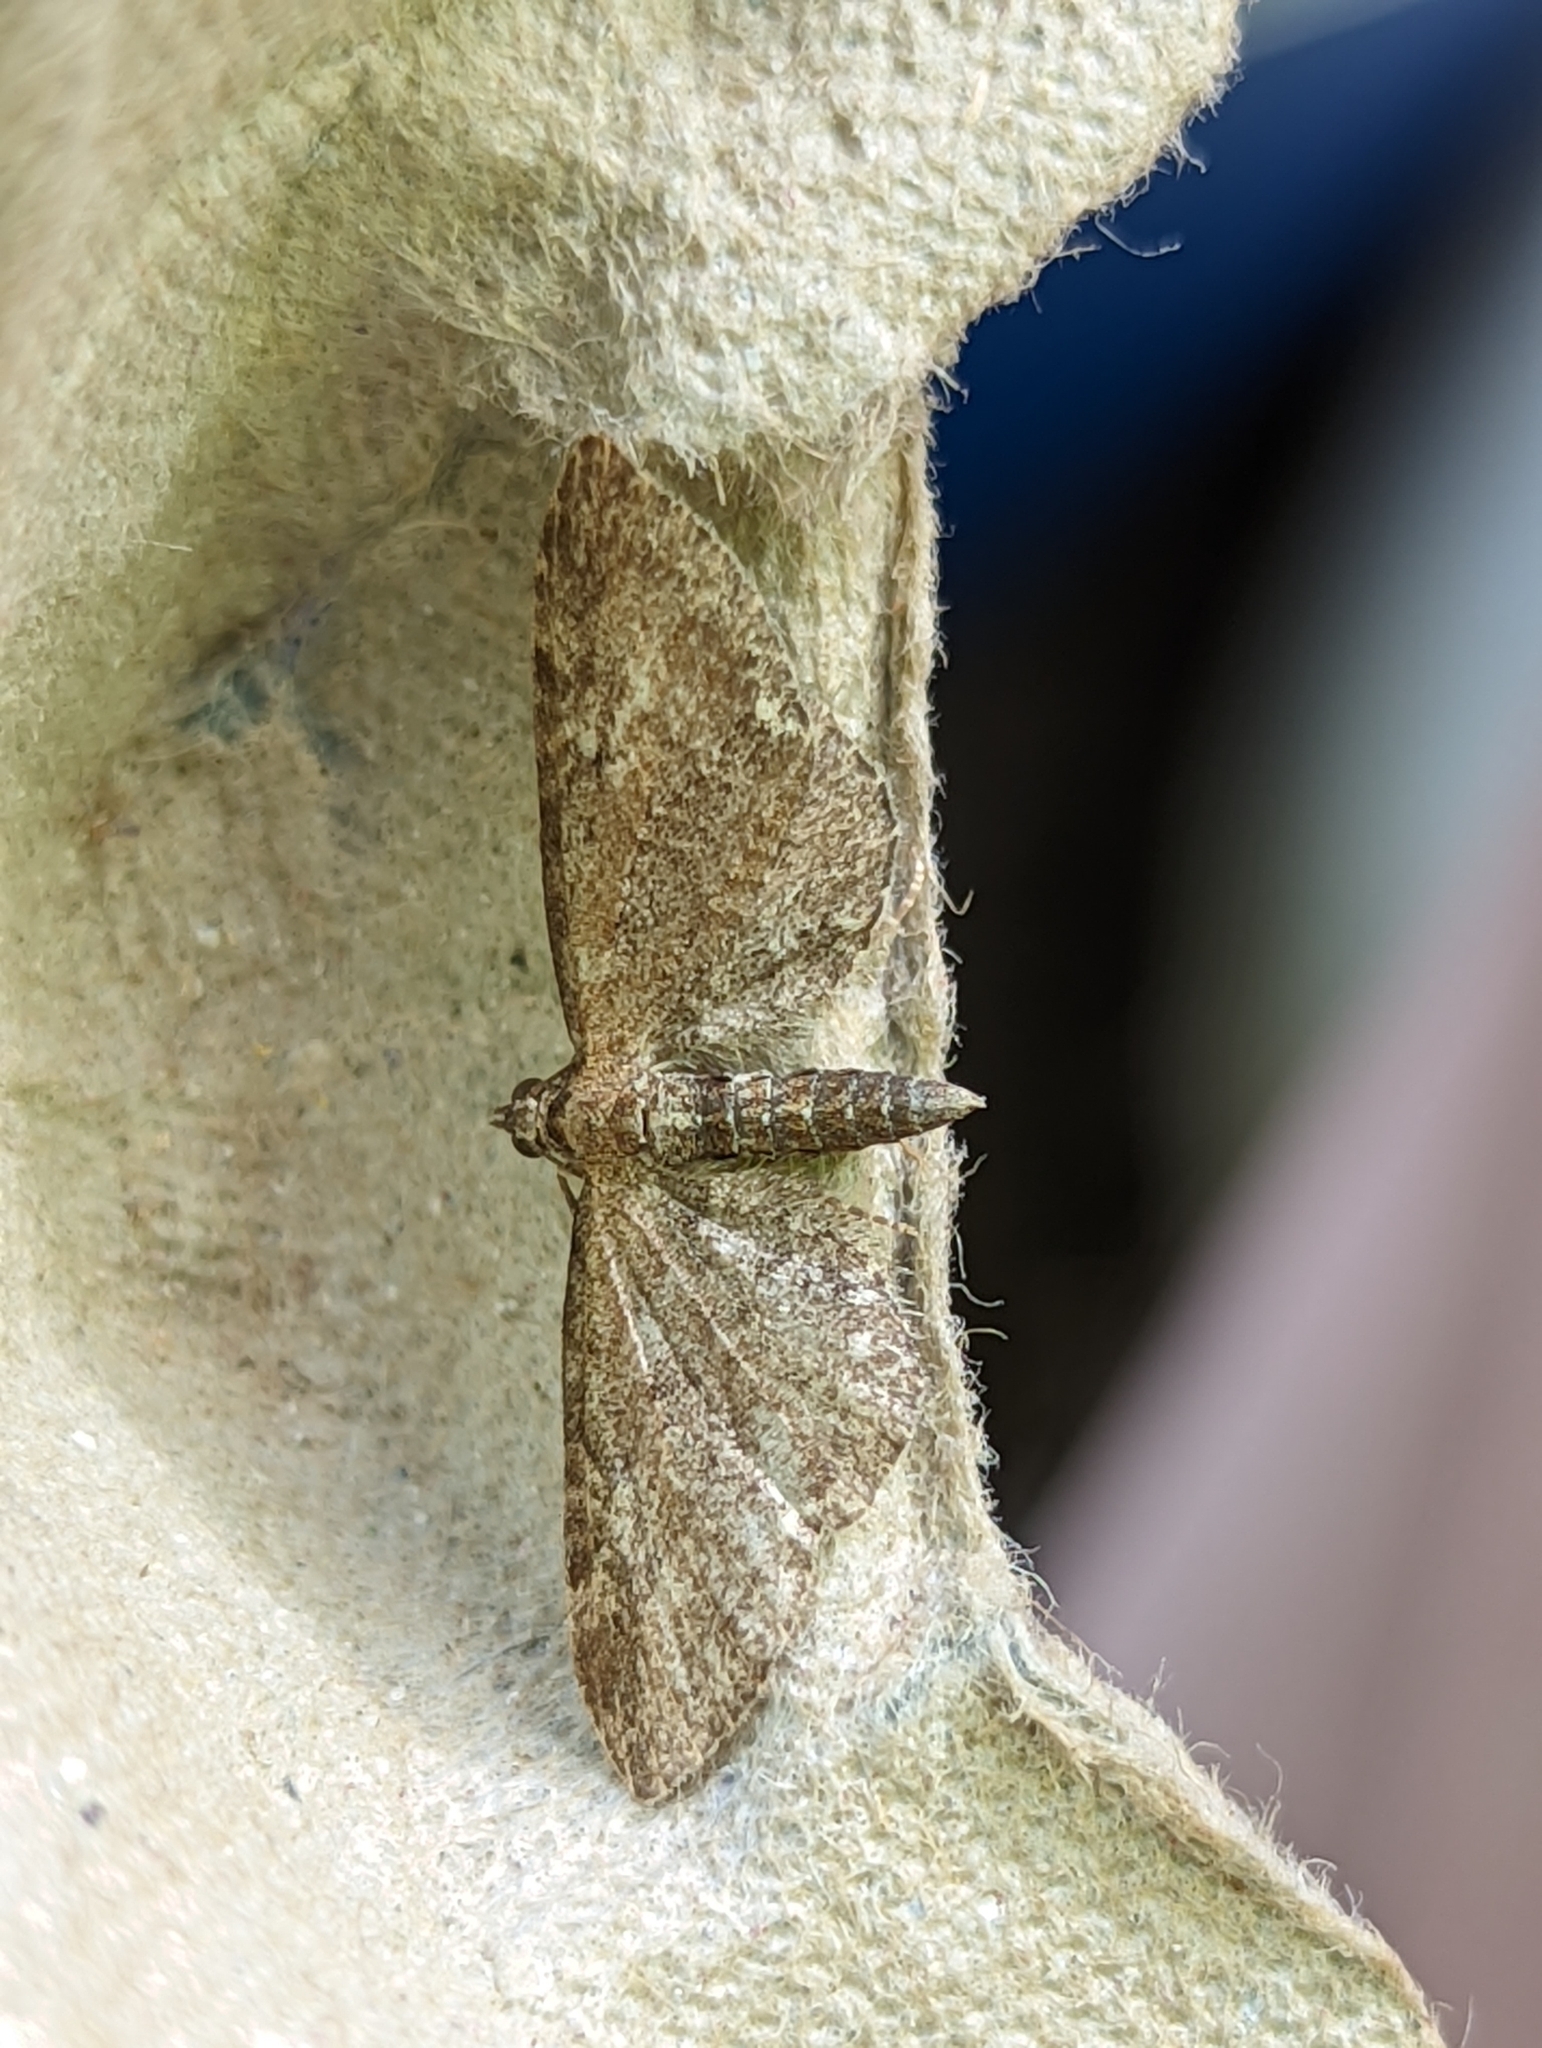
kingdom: Animalia
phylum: Arthropoda
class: Insecta
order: Lepidoptera
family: Geometridae
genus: Eupithecia
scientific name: Eupithecia vulgata
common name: Common pug
